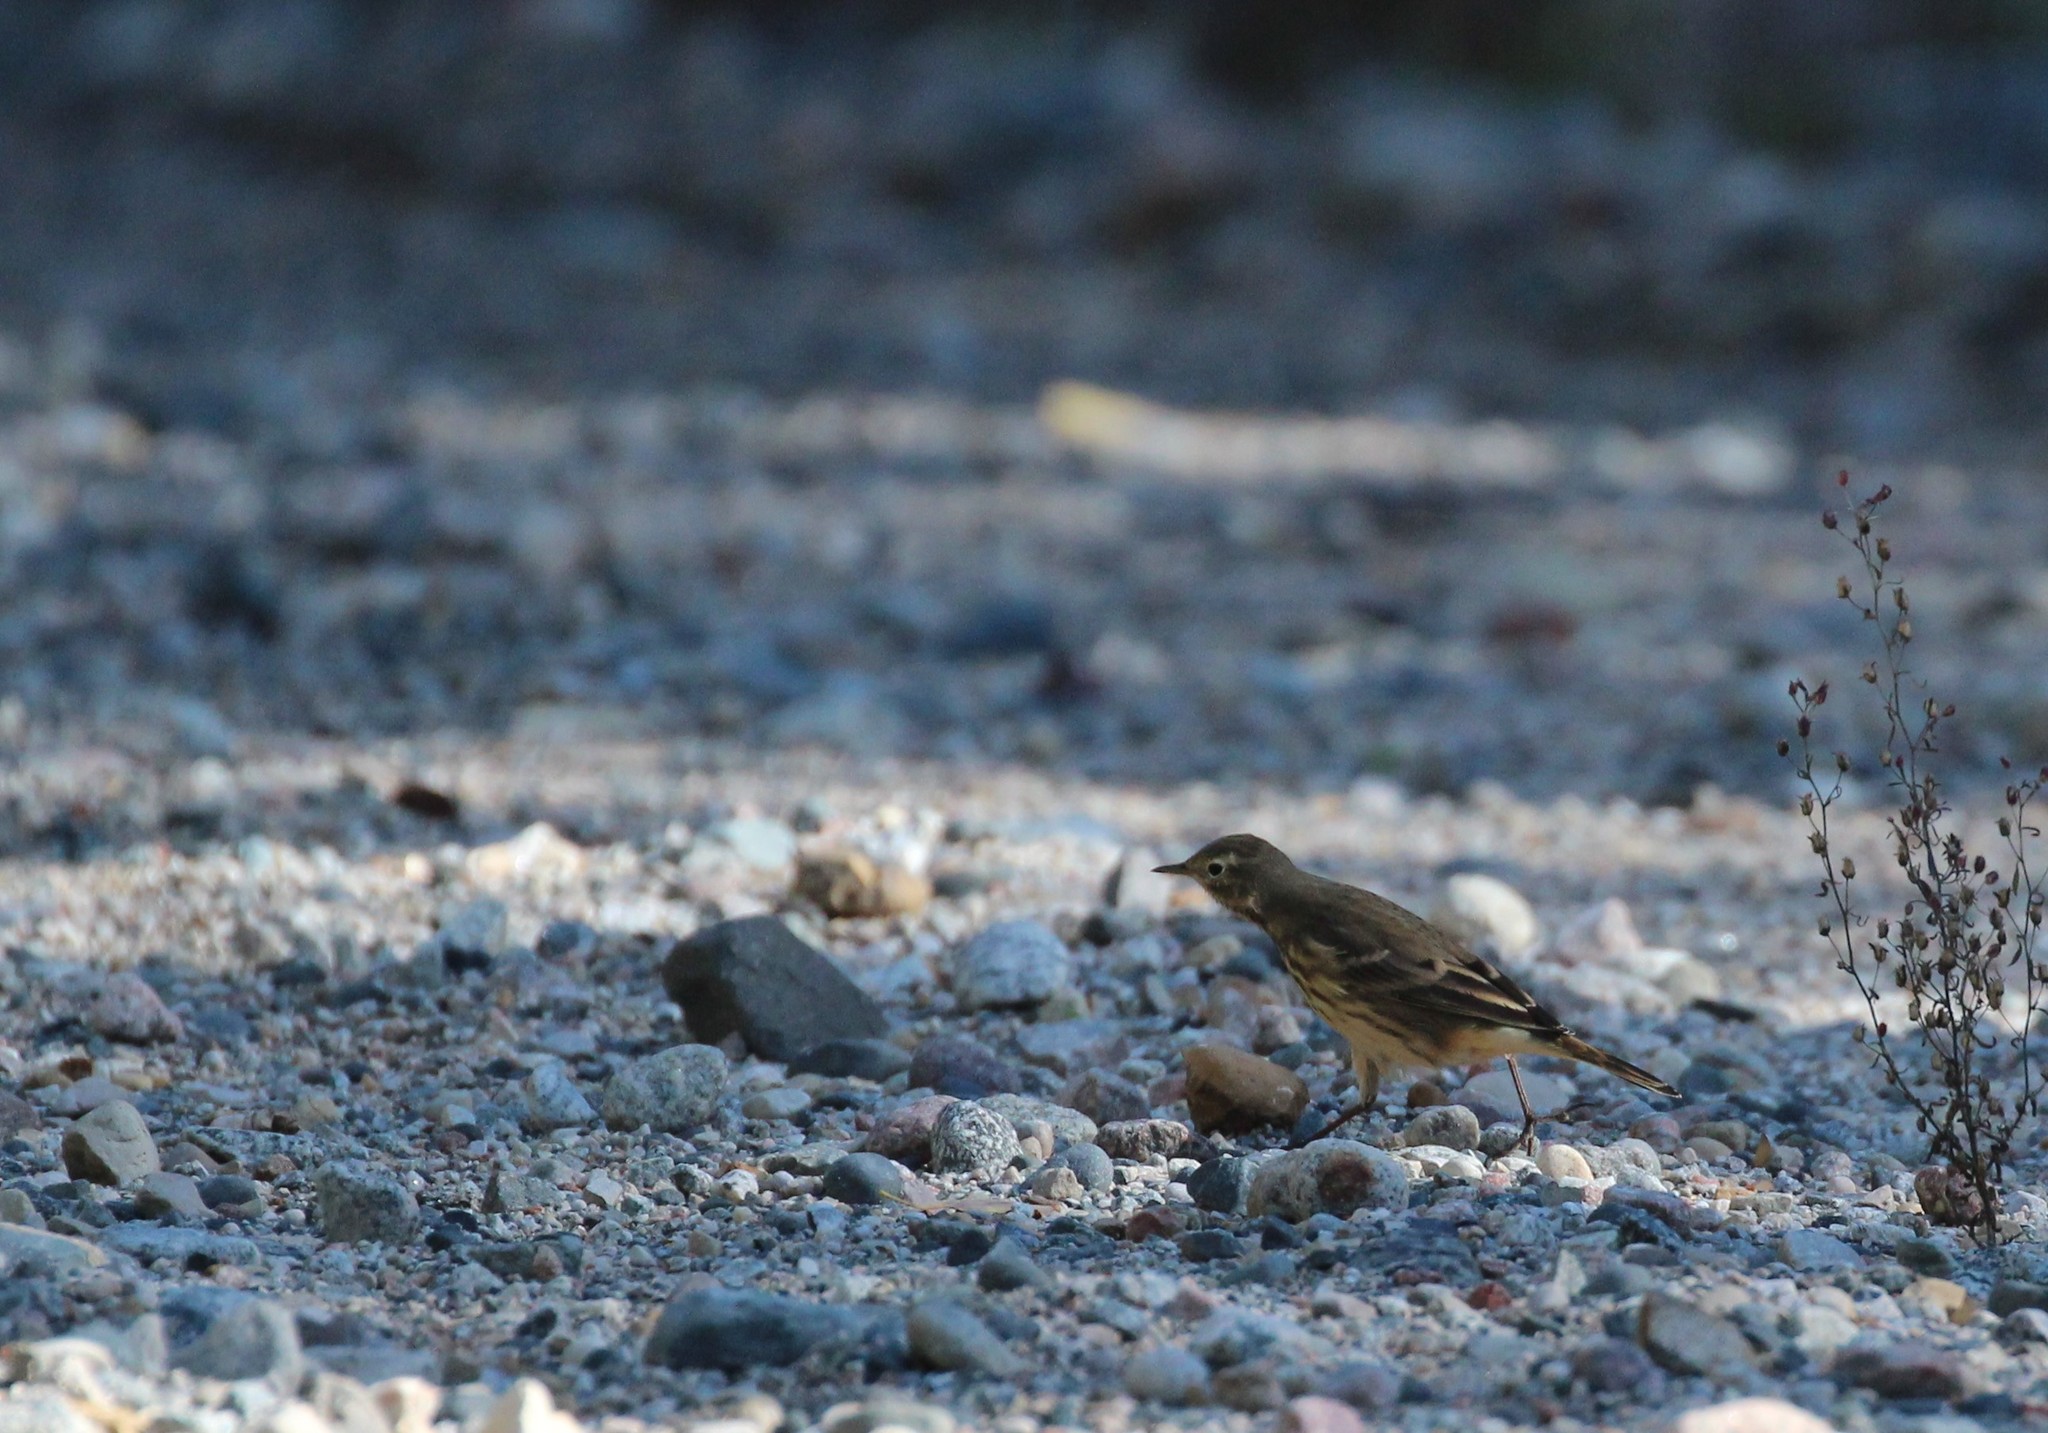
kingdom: Animalia
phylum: Chordata
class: Aves
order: Passeriformes
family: Motacillidae
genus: Anthus
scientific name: Anthus rubescens
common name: Buff-bellied pipit
